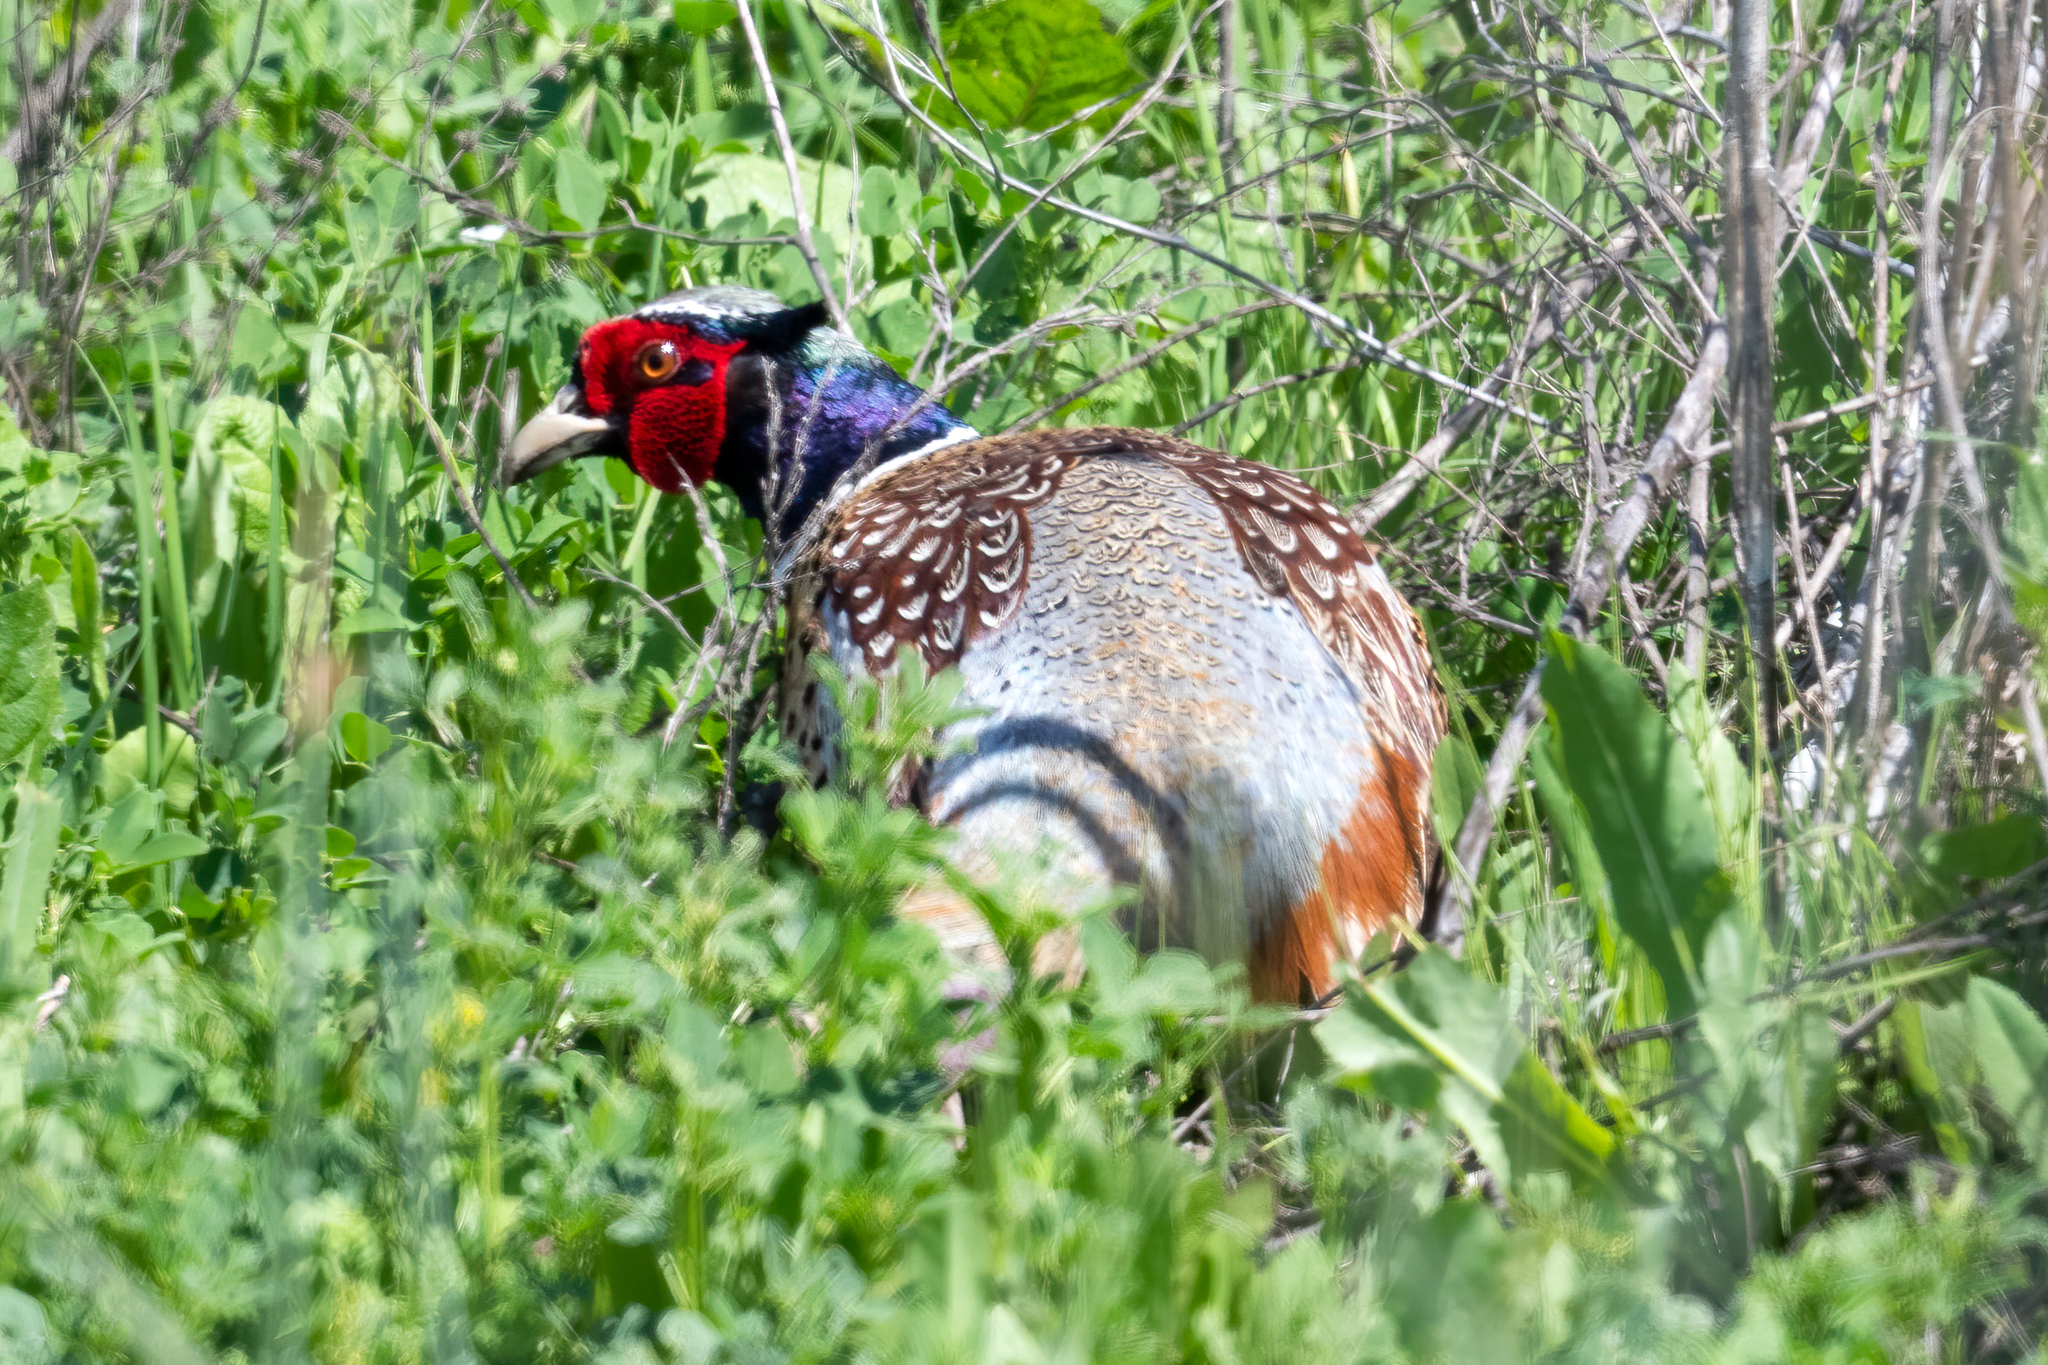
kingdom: Animalia
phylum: Chordata
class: Aves
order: Galliformes
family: Phasianidae
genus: Phasianus
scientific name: Phasianus colchicus
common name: Common pheasant
